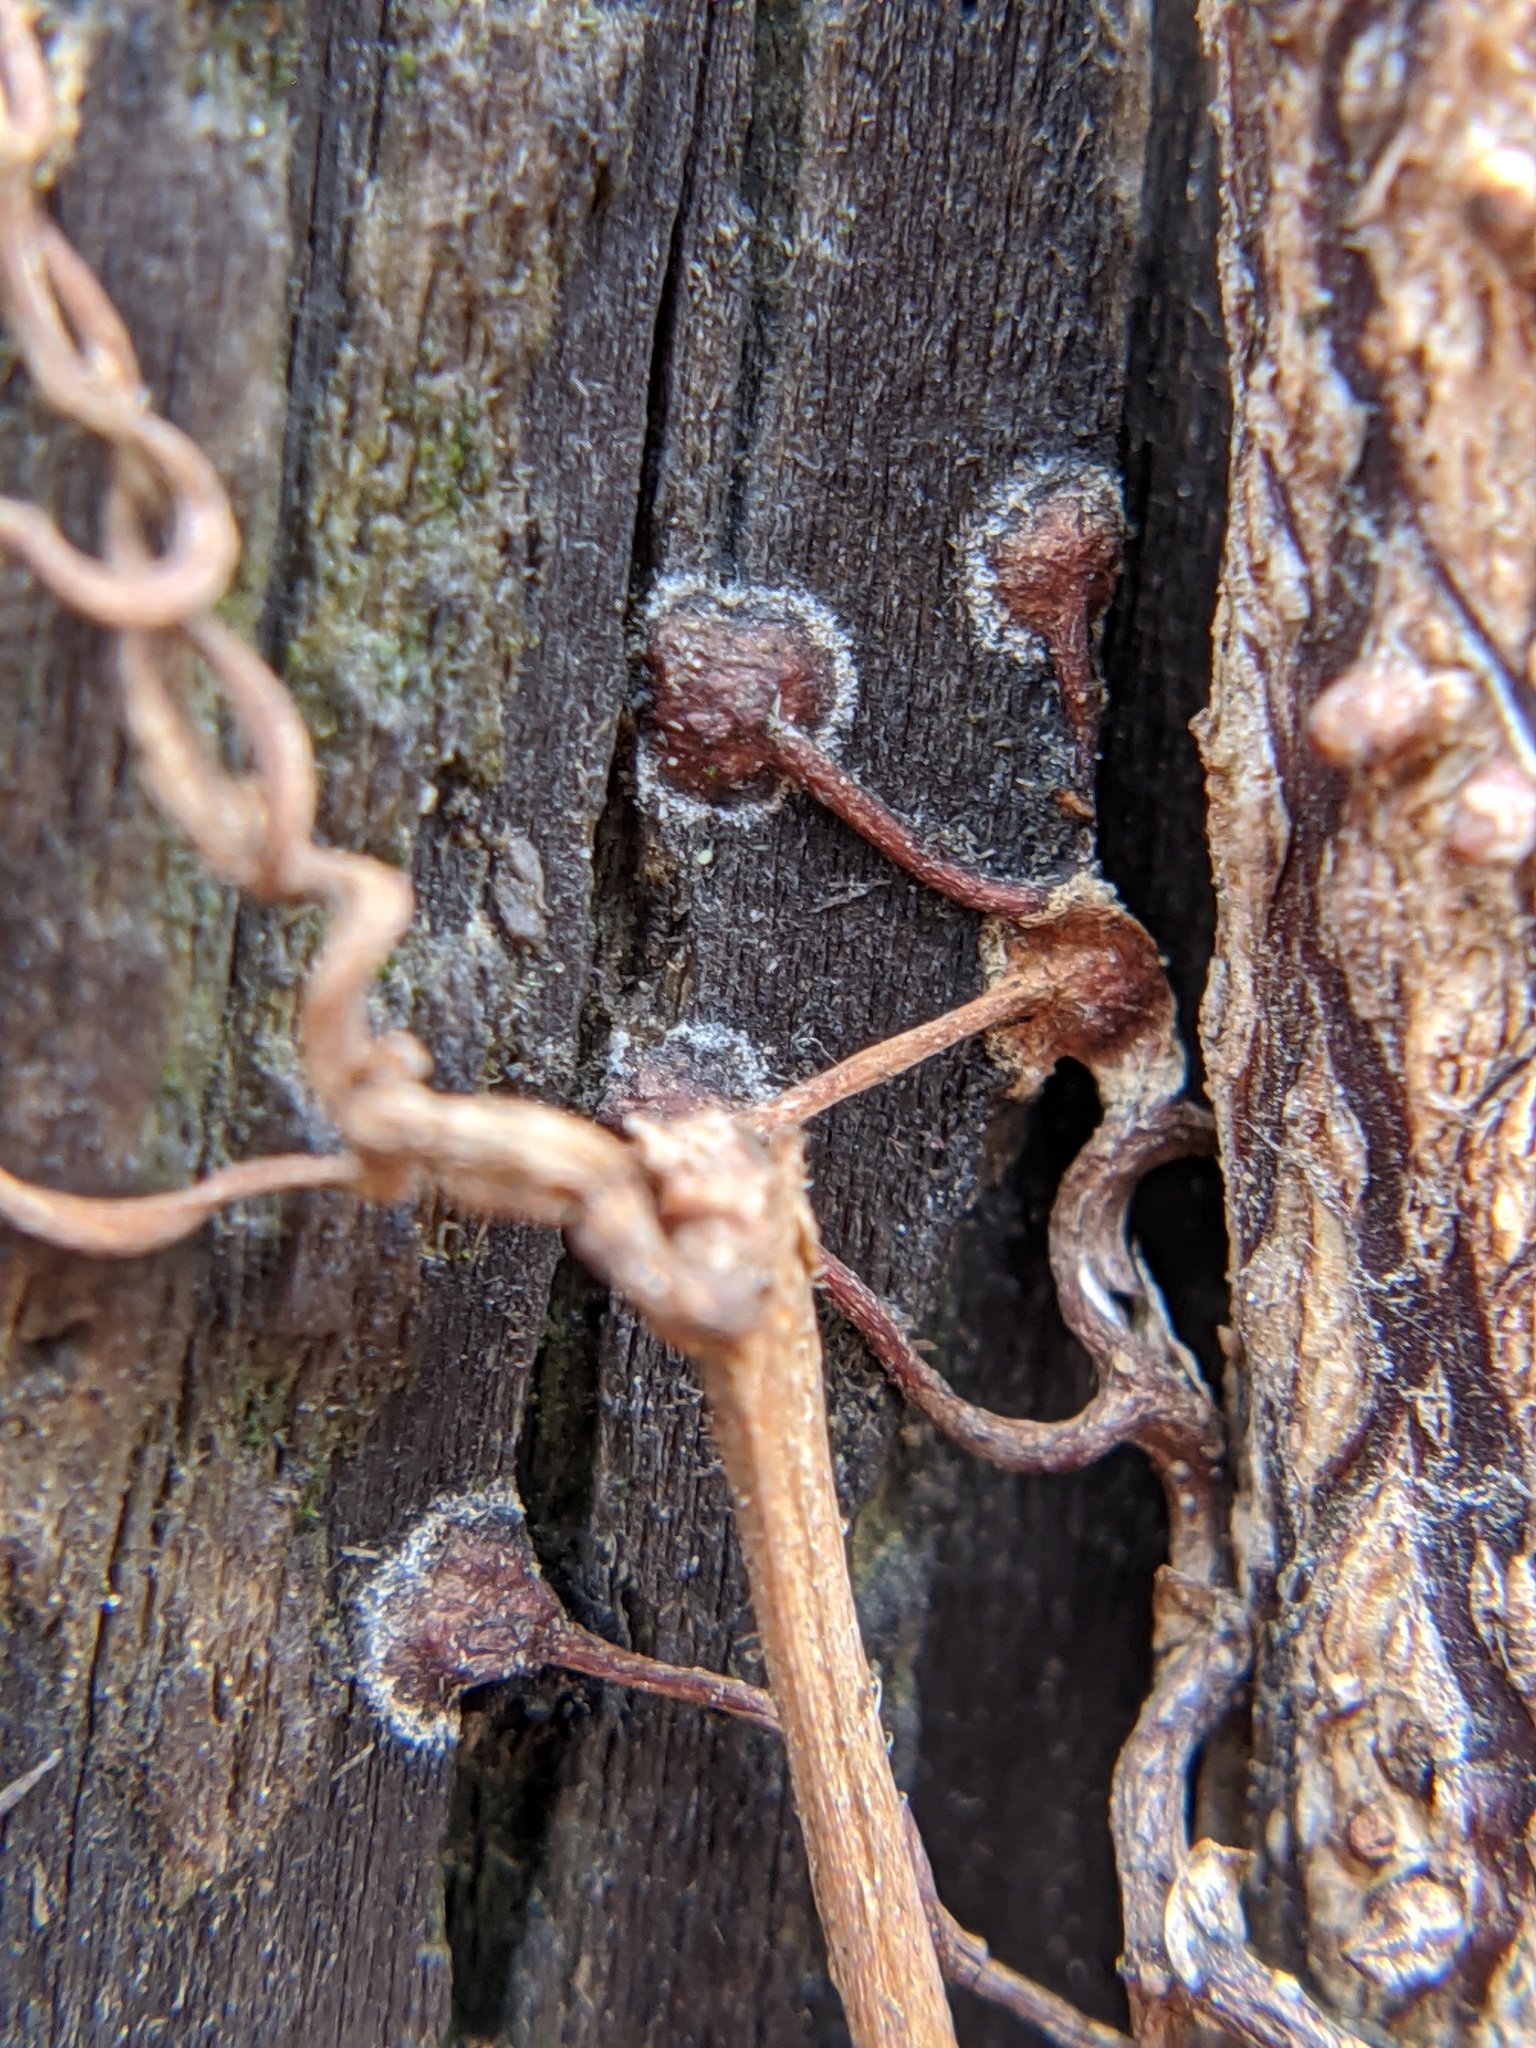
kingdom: Plantae
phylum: Tracheophyta
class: Magnoliopsida
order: Vitales
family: Vitaceae
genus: Parthenocissus
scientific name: Parthenocissus tricuspidata
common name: Boston ivy
